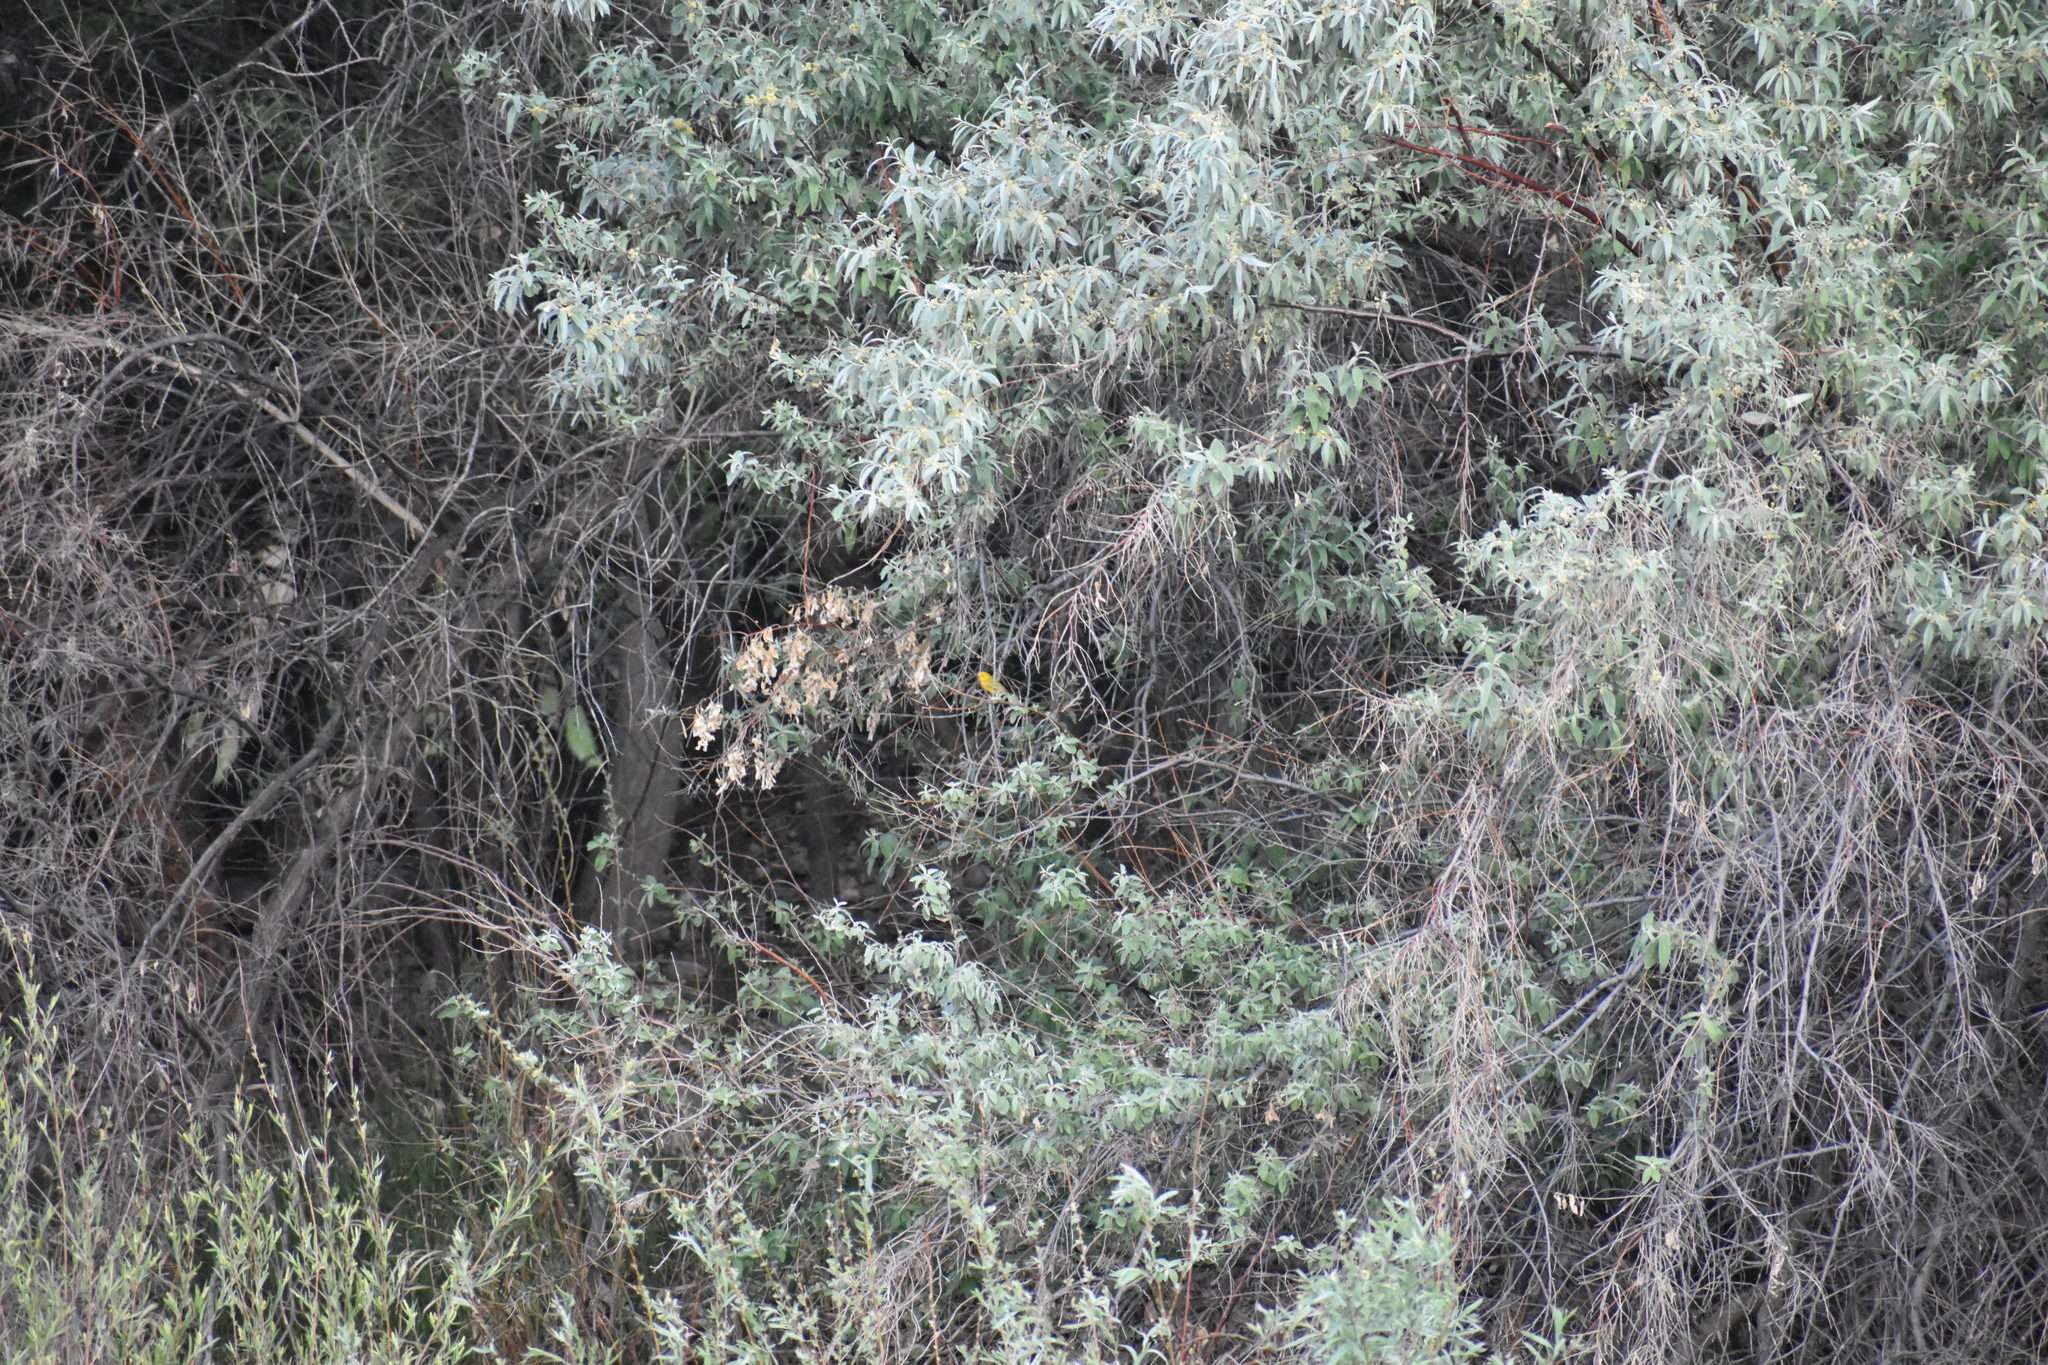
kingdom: Animalia
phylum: Chordata
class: Aves
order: Passeriformes
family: Parulidae
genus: Setophaga
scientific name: Setophaga petechia
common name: Yellow warbler
